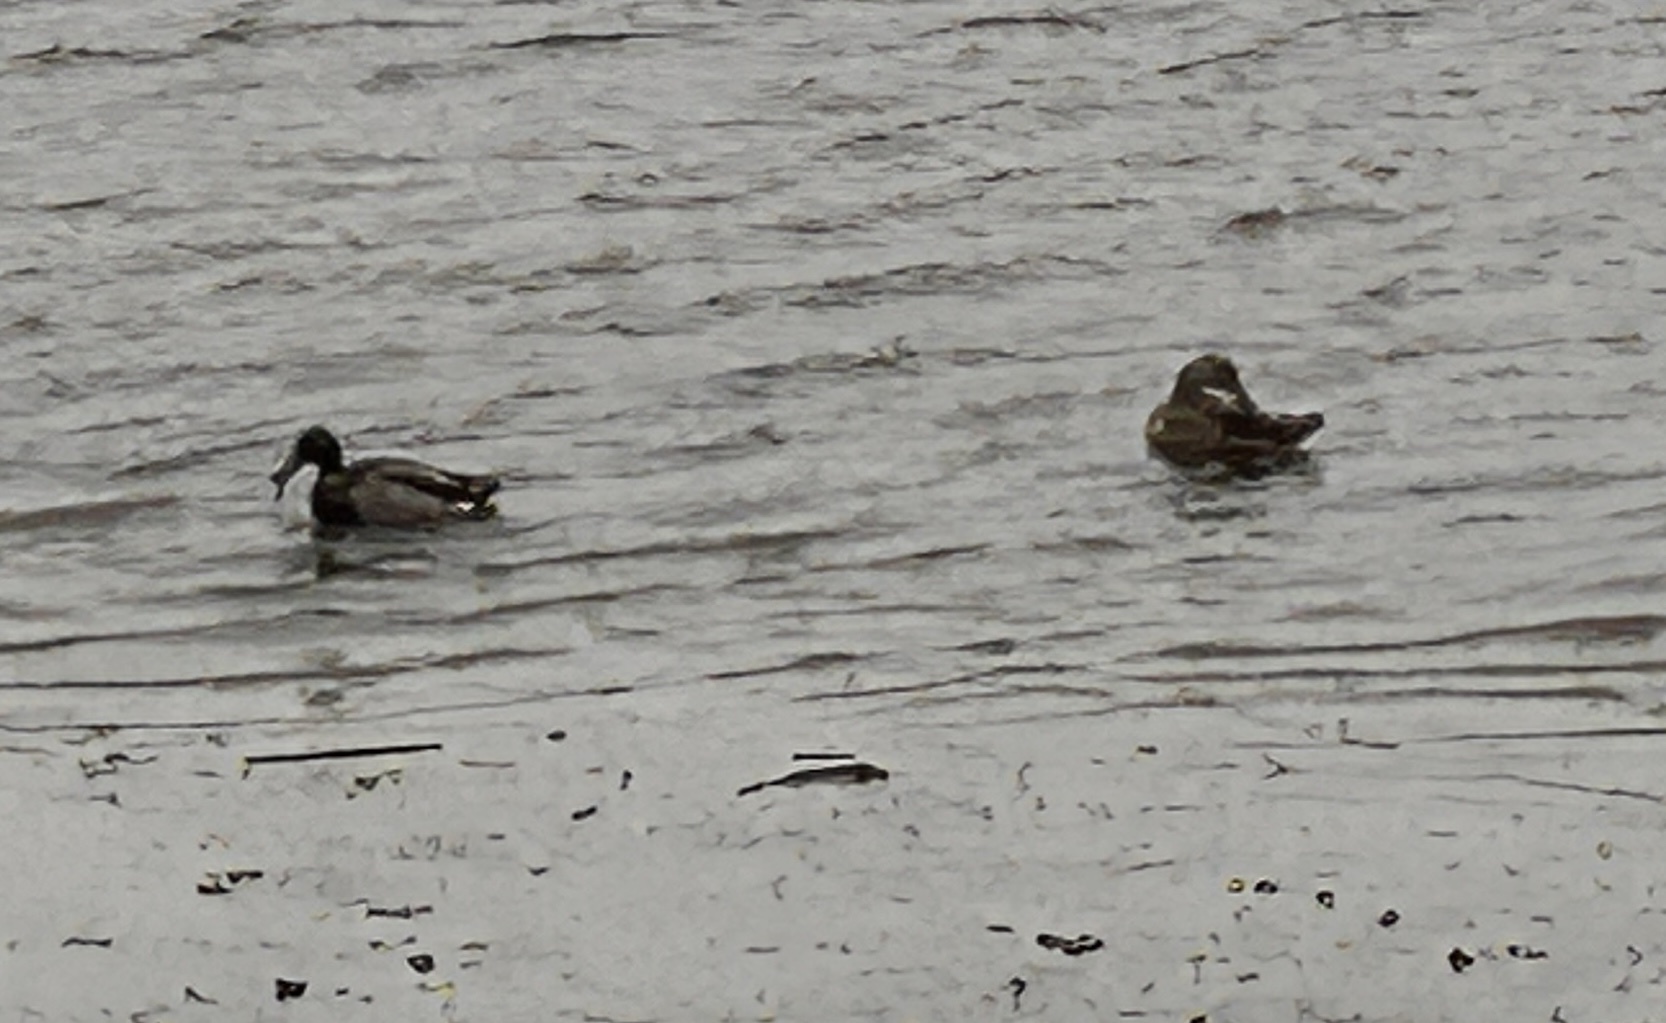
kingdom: Animalia
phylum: Chordata
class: Aves
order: Anseriformes
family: Anatidae
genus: Anas
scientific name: Anas platyrhynchos
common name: Mallard
